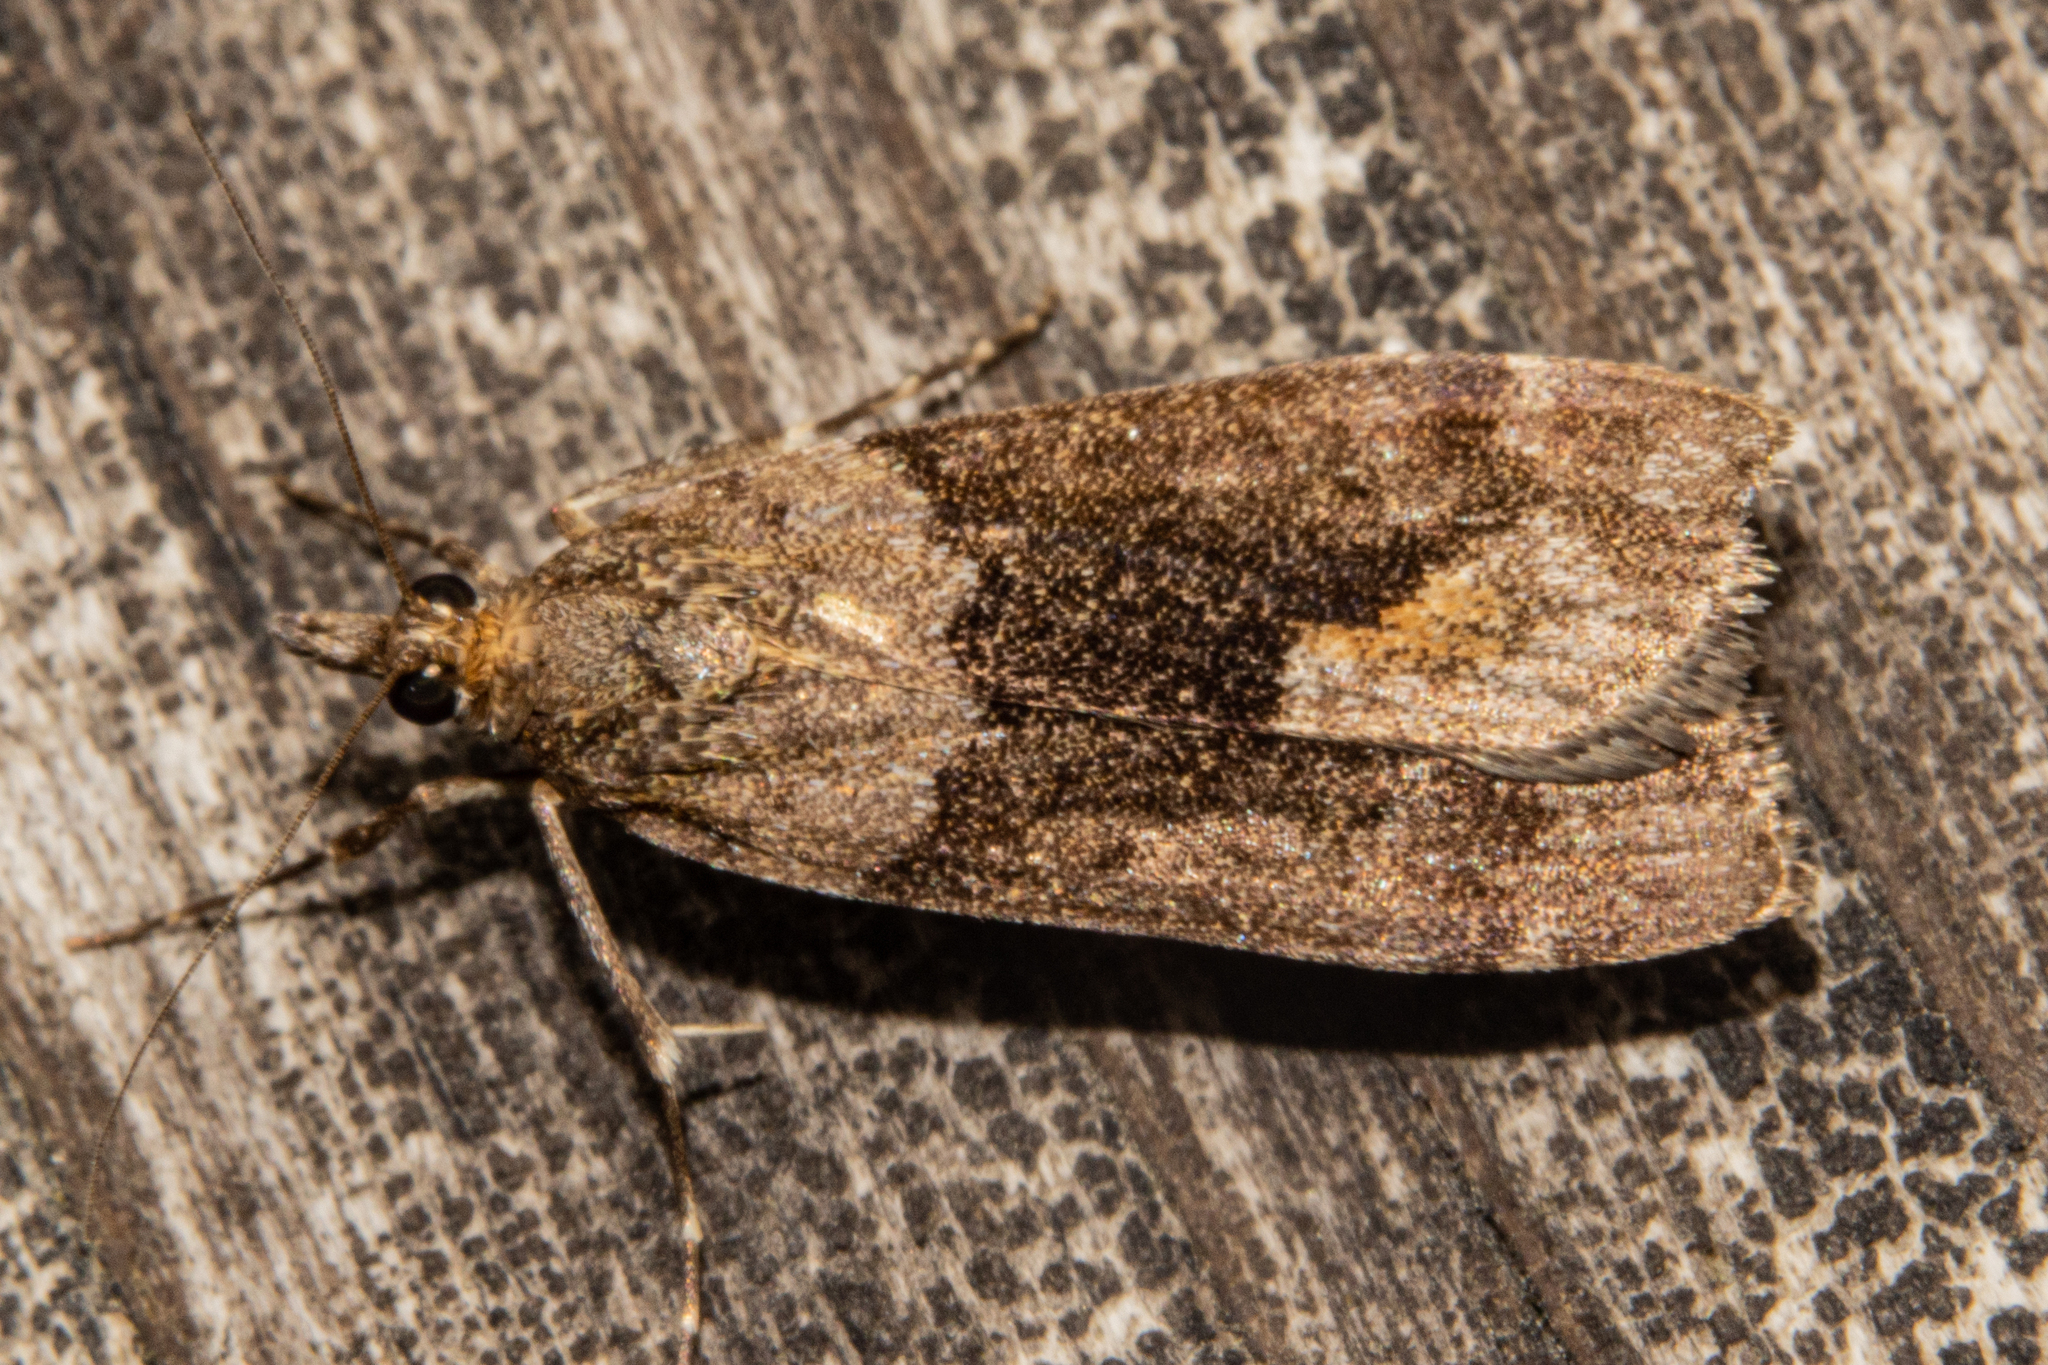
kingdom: Animalia
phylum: Arthropoda
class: Insecta
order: Lepidoptera
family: Crambidae
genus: Eudonia
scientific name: Eudonia submarginalis
